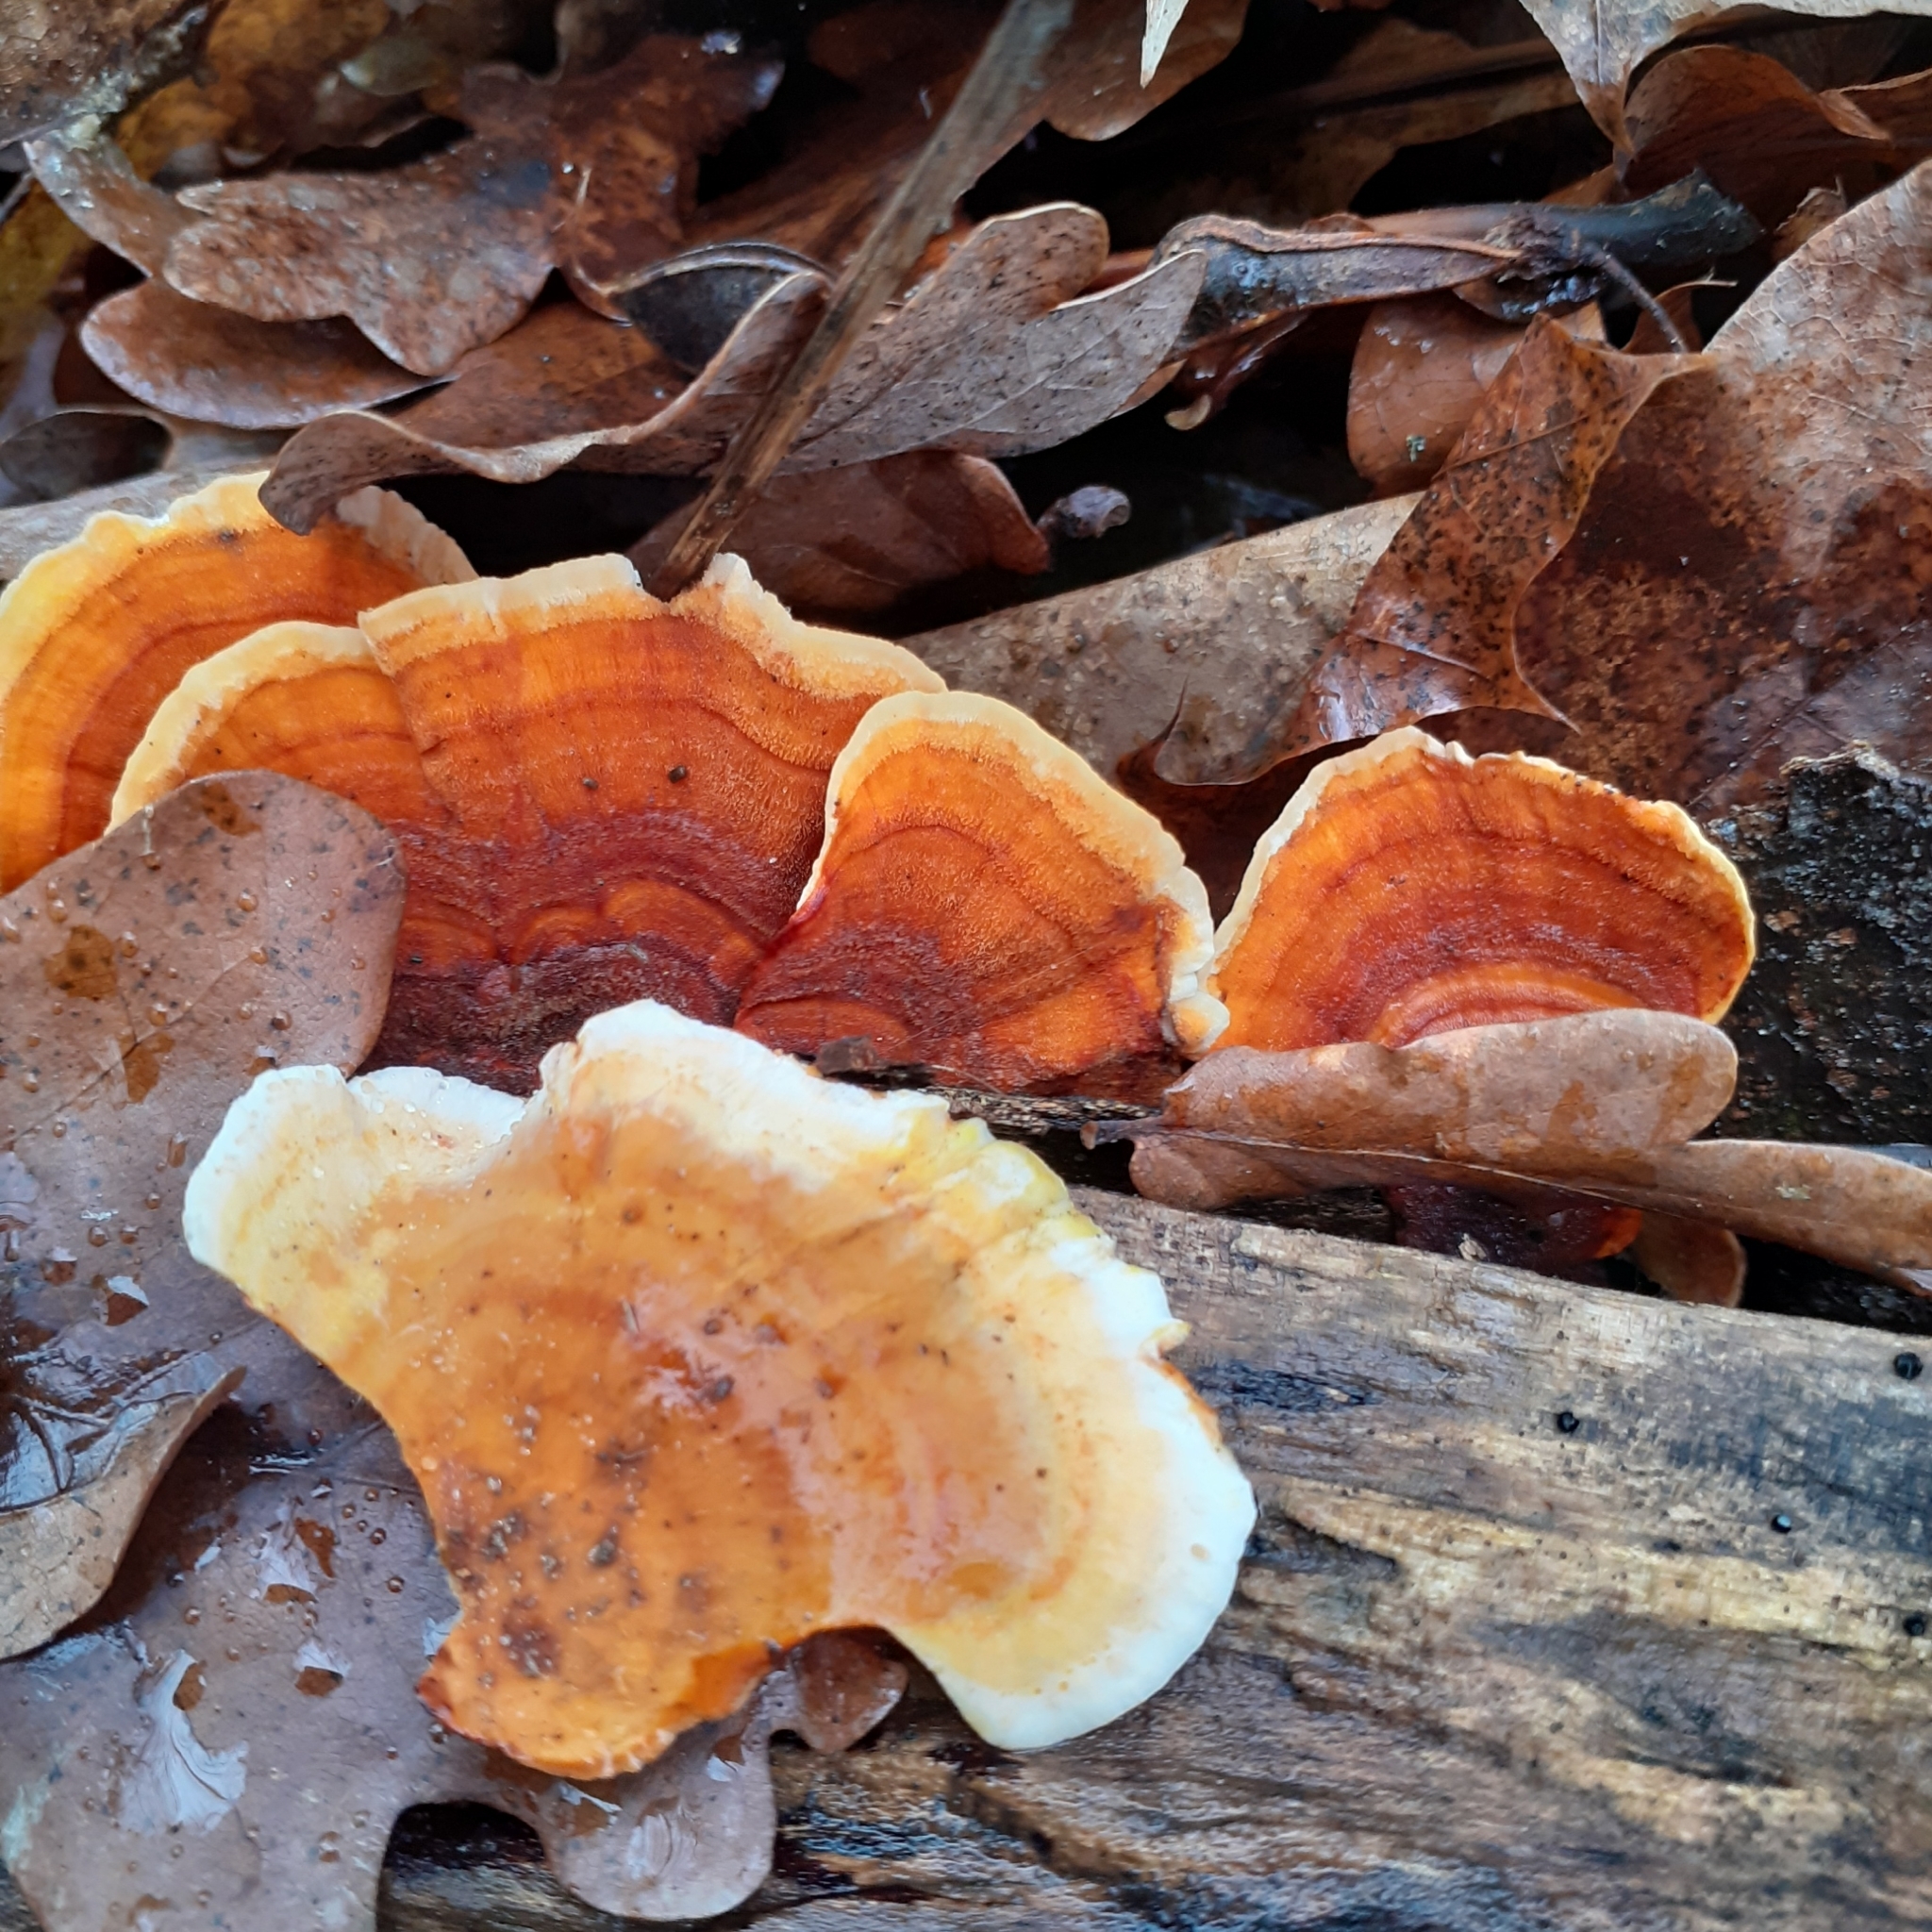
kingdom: Fungi
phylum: Basidiomycota
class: Agaricomycetes
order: Russulales
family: Stereaceae
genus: Stereum
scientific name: Stereum subtomentosum
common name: Yellowing curtain crust
